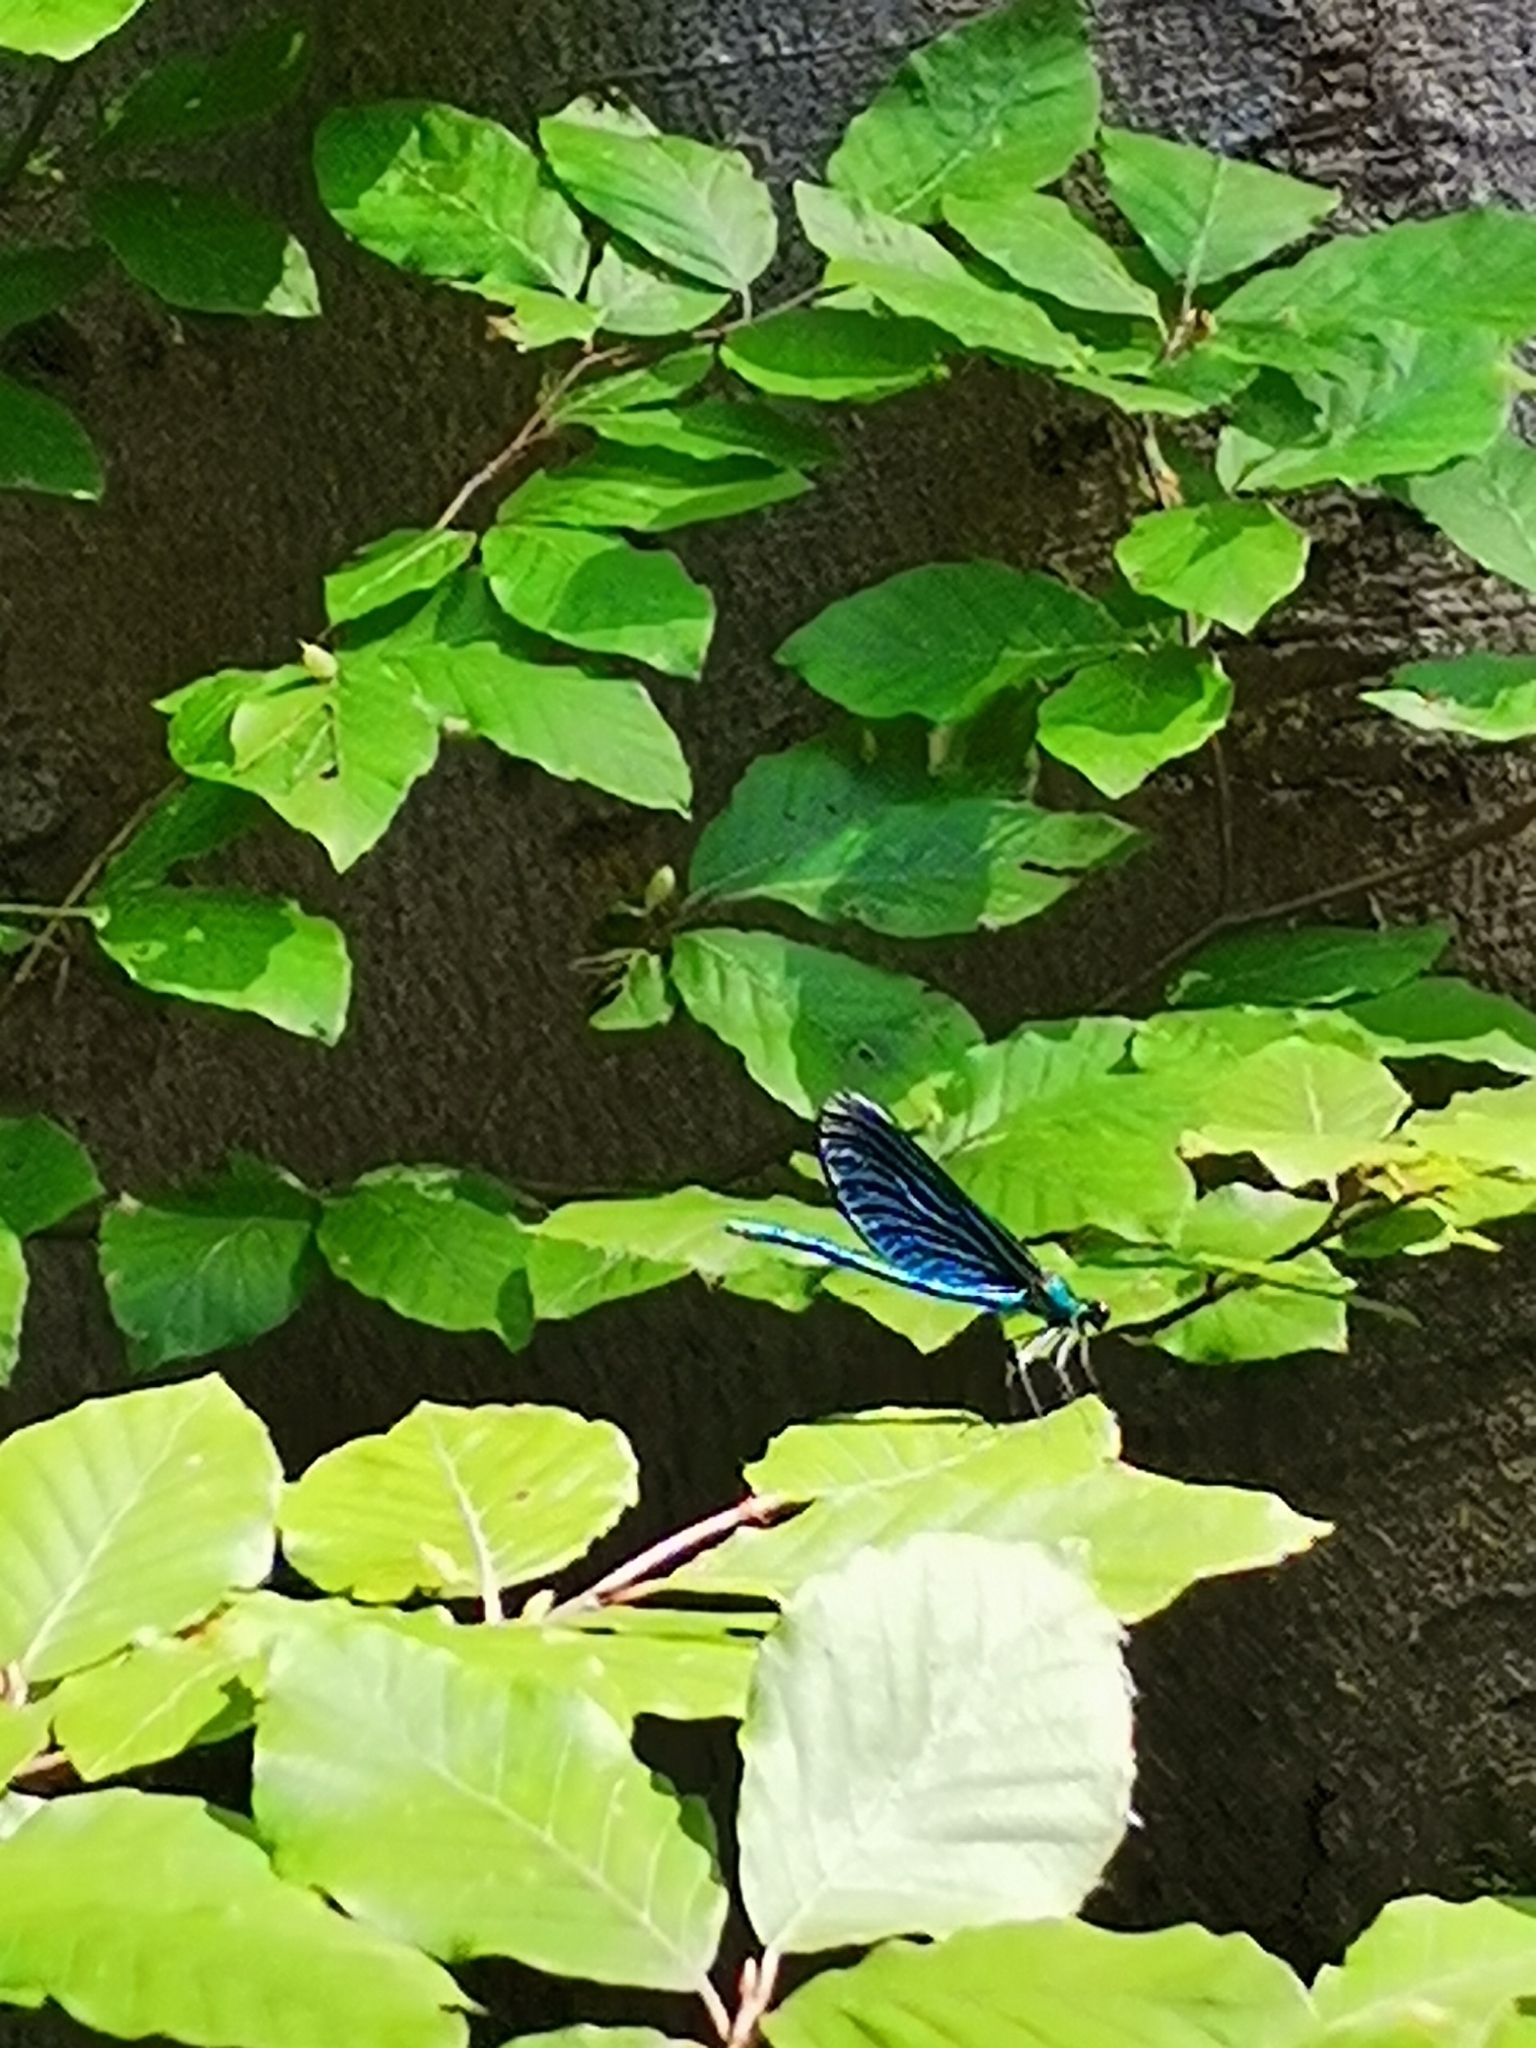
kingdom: Animalia
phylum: Arthropoda
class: Insecta
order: Odonata
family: Calopterygidae
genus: Calopteryx
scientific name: Calopteryx virgo
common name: Beautiful demoiselle
